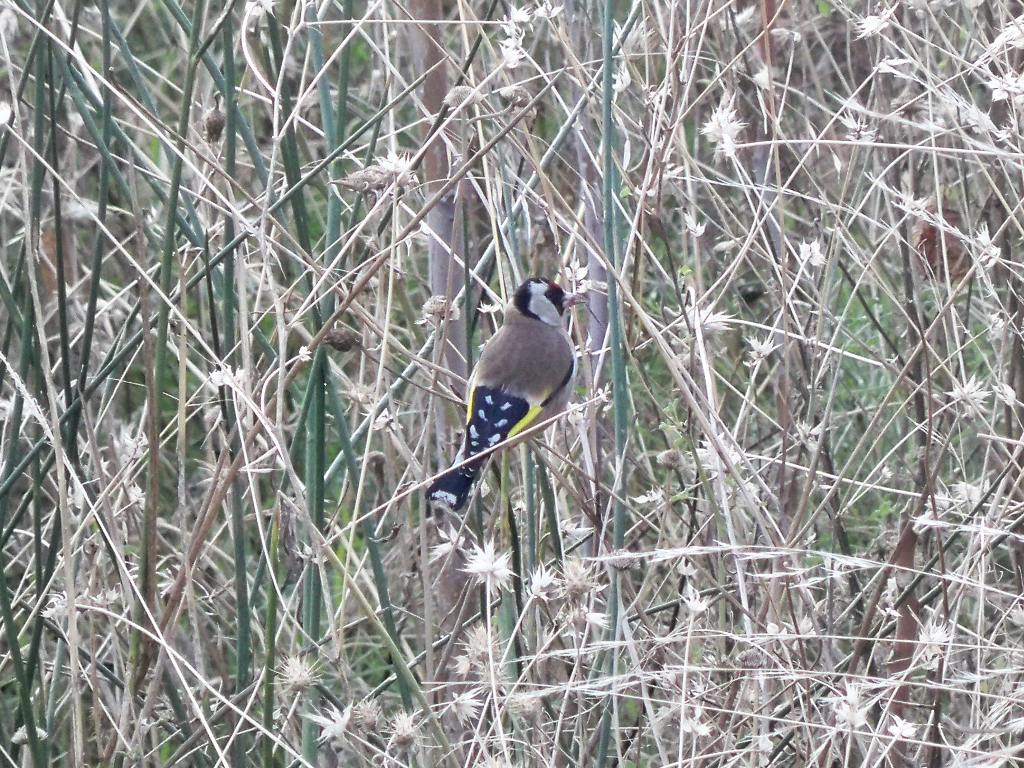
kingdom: Animalia
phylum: Chordata
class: Aves
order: Passeriformes
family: Fringillidae
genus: Carduelis
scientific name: Carduelis carduelis
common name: European goldfinch
